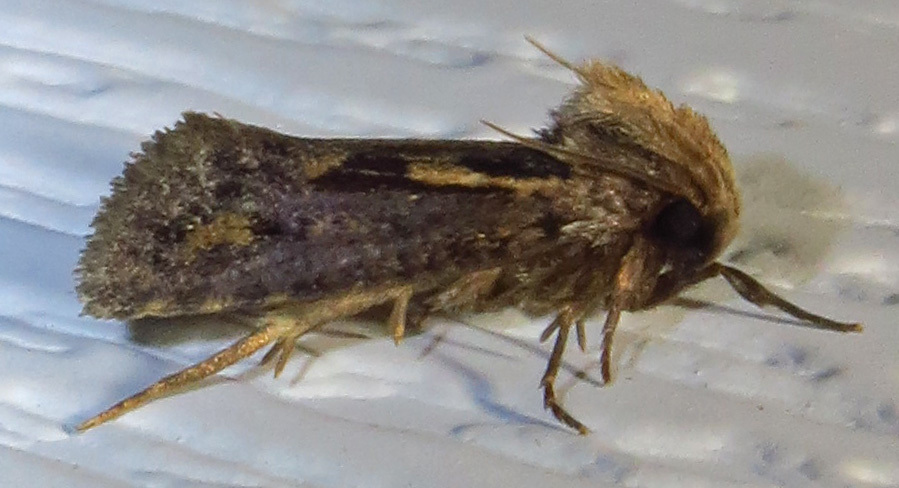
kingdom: Animalia
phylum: Arthropoda
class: Insecta
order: Lepidoptera
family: Tineidae
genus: Acrolophus
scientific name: Acrolophus popeanella
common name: Clemens' grass tubeworm moth
